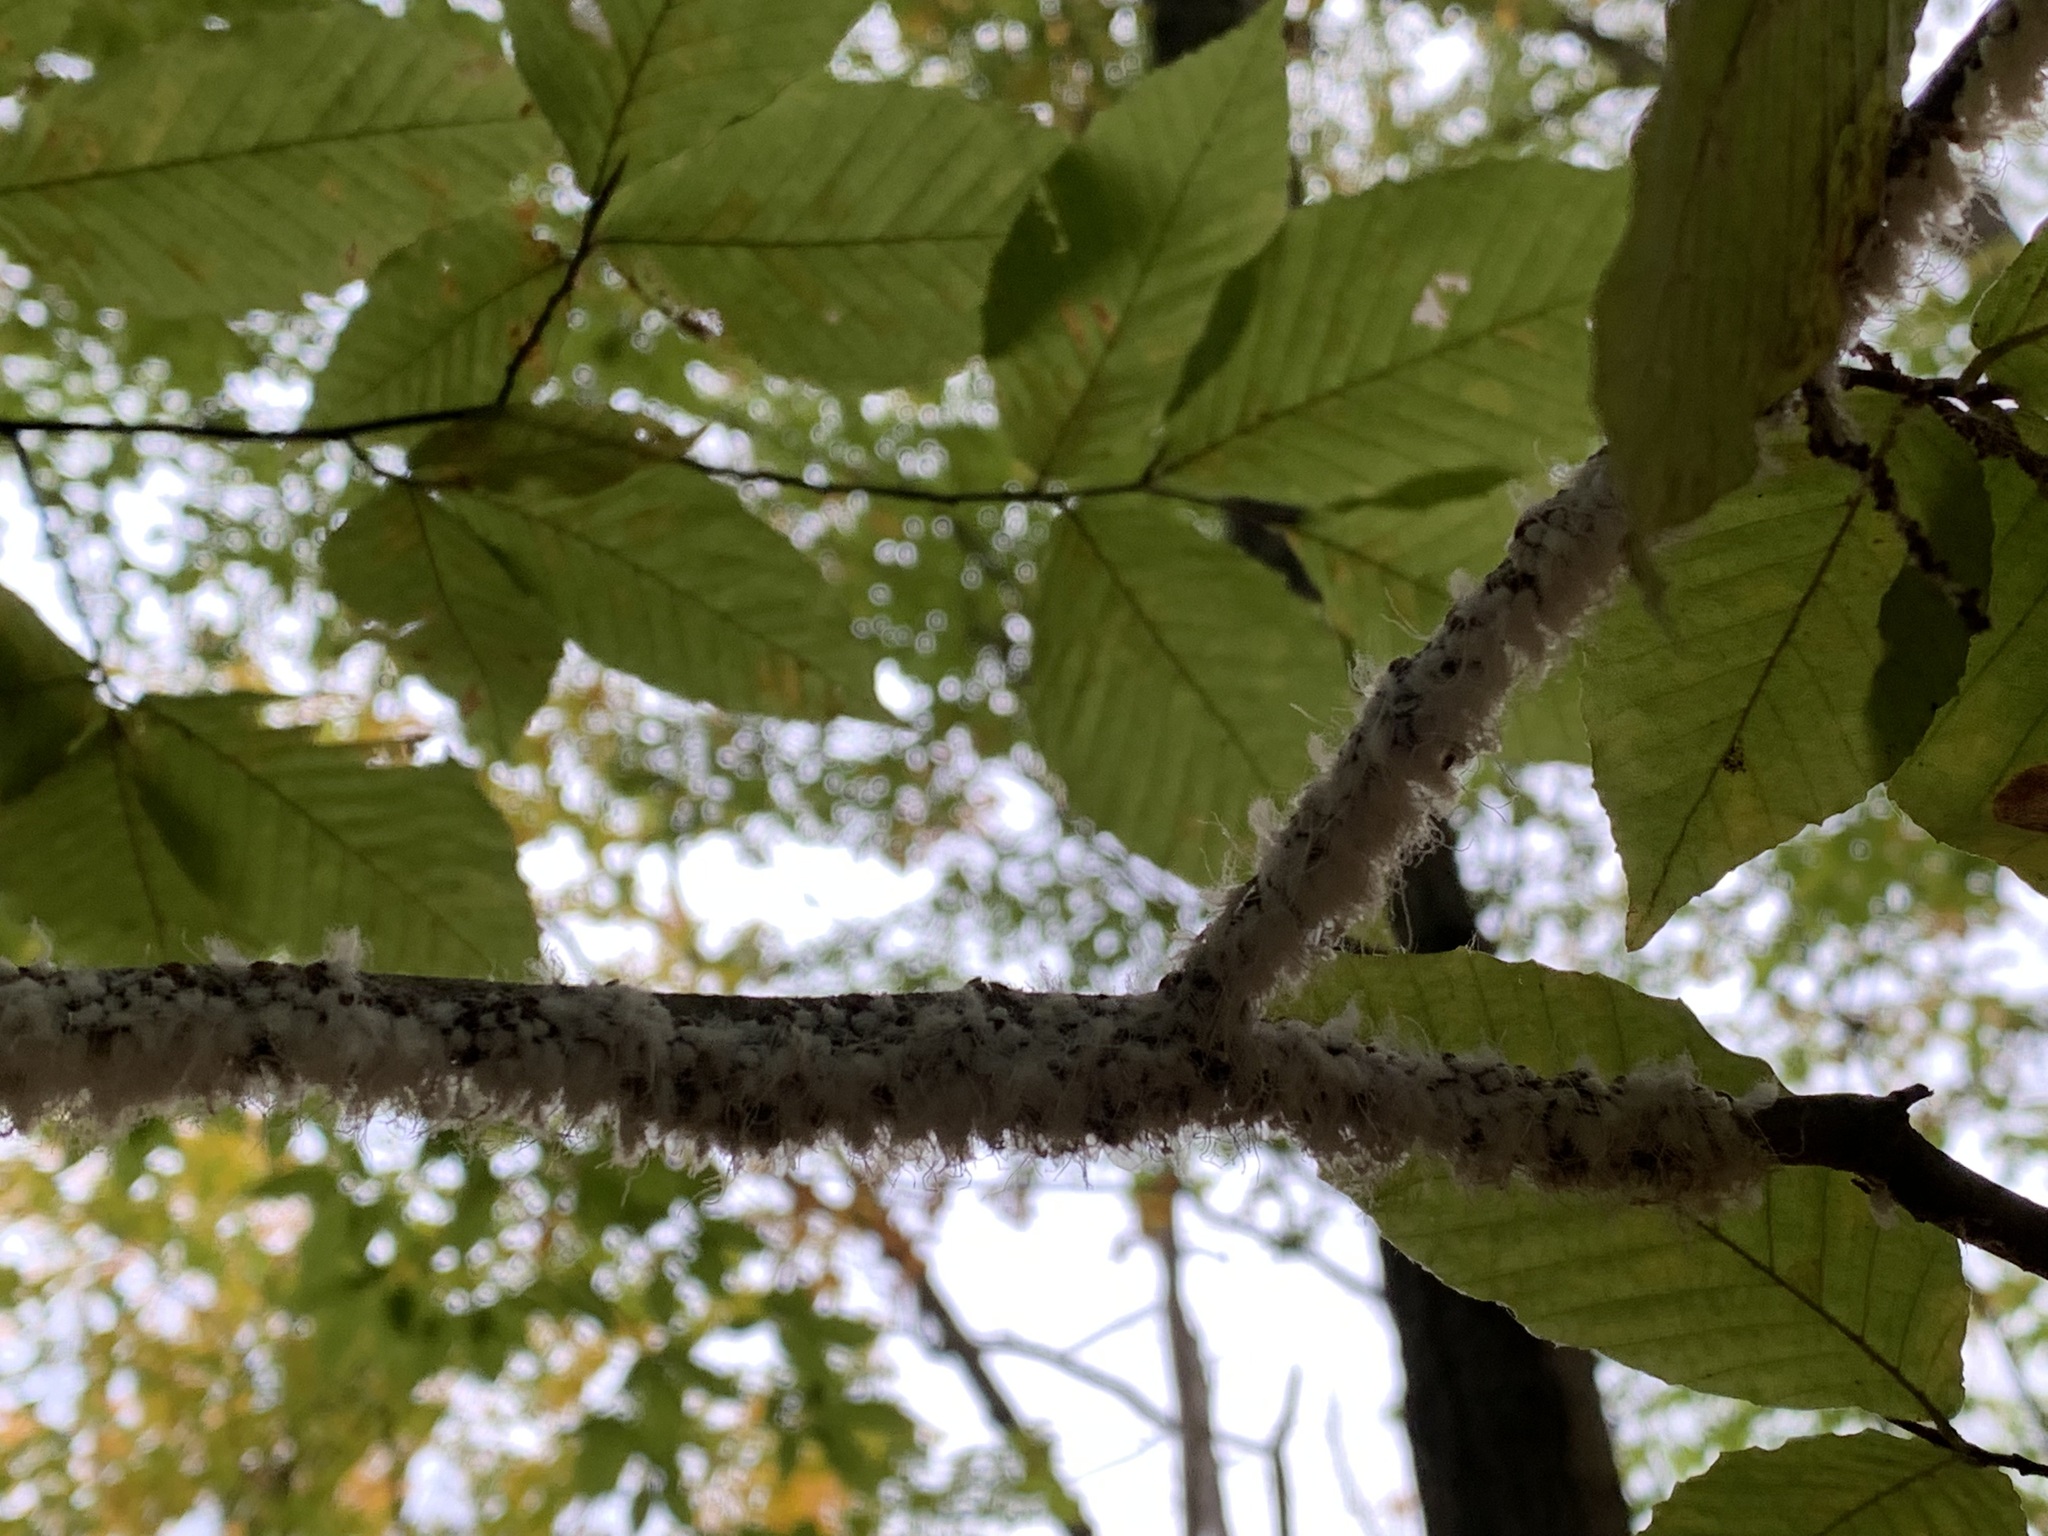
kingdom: Animalia
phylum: Arthropoda
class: Insecta
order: Hemiptera
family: Aphididae
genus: Grylloprociphilus
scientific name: Grylloprociphilus imbricator
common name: Beech blight aphid
